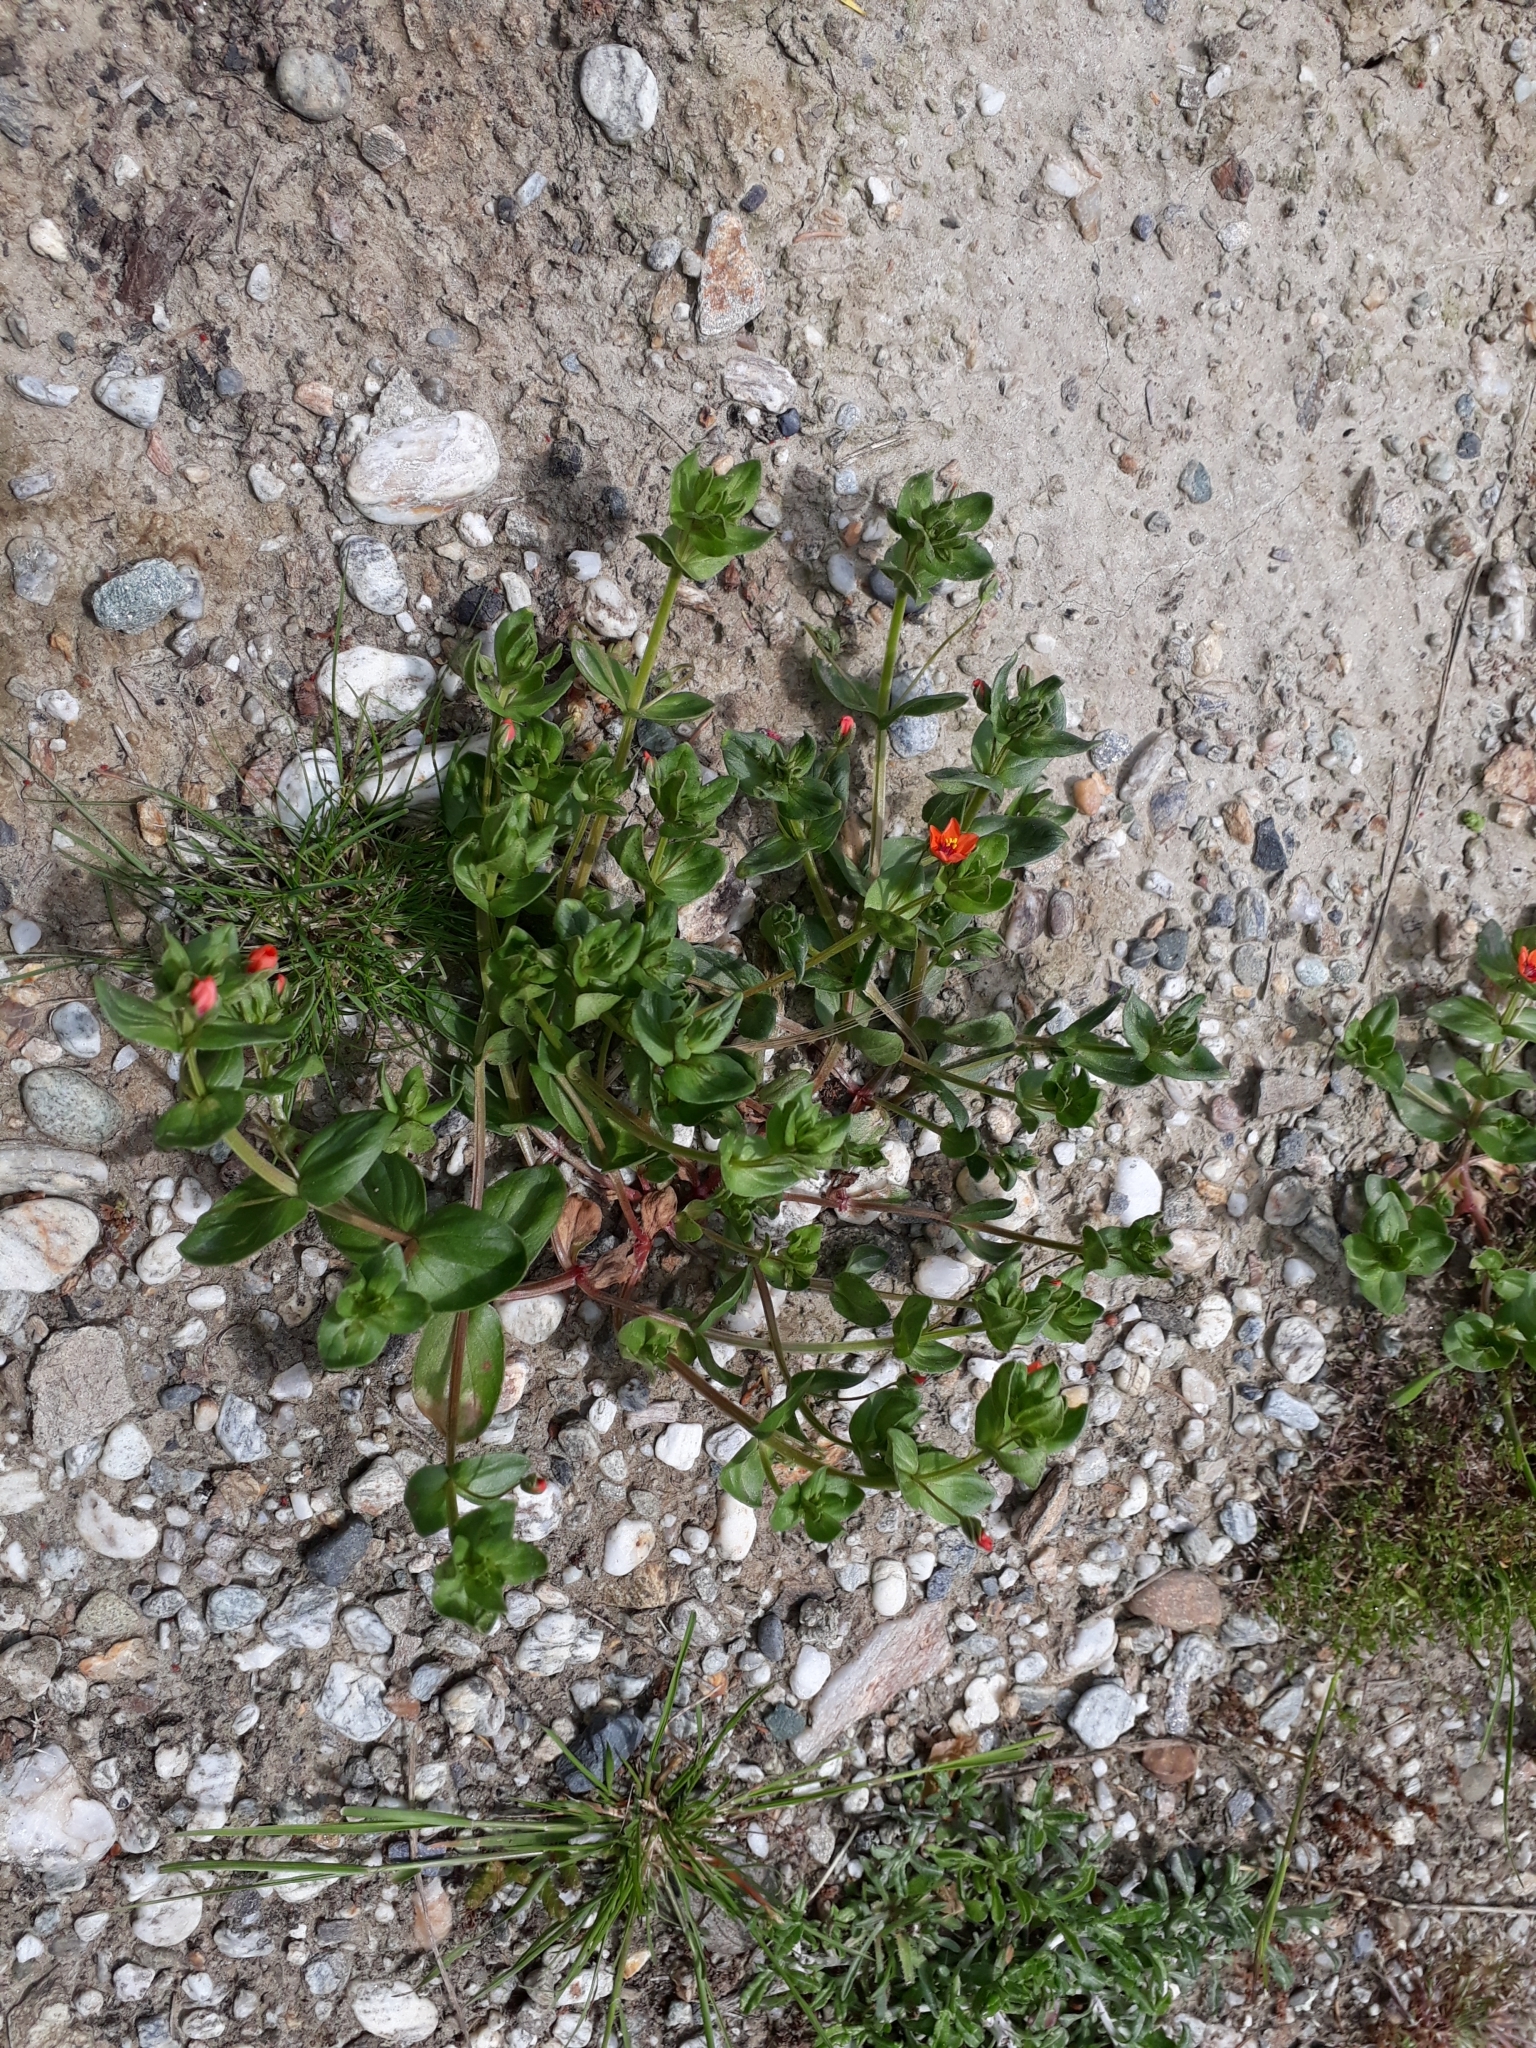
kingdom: Plantae
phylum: Tracheophyta
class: Magnoliopsida
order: Ericales
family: Primulaceae
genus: Lysimachia
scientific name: Lysimachia arvensis
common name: Scarlet pimpernel
